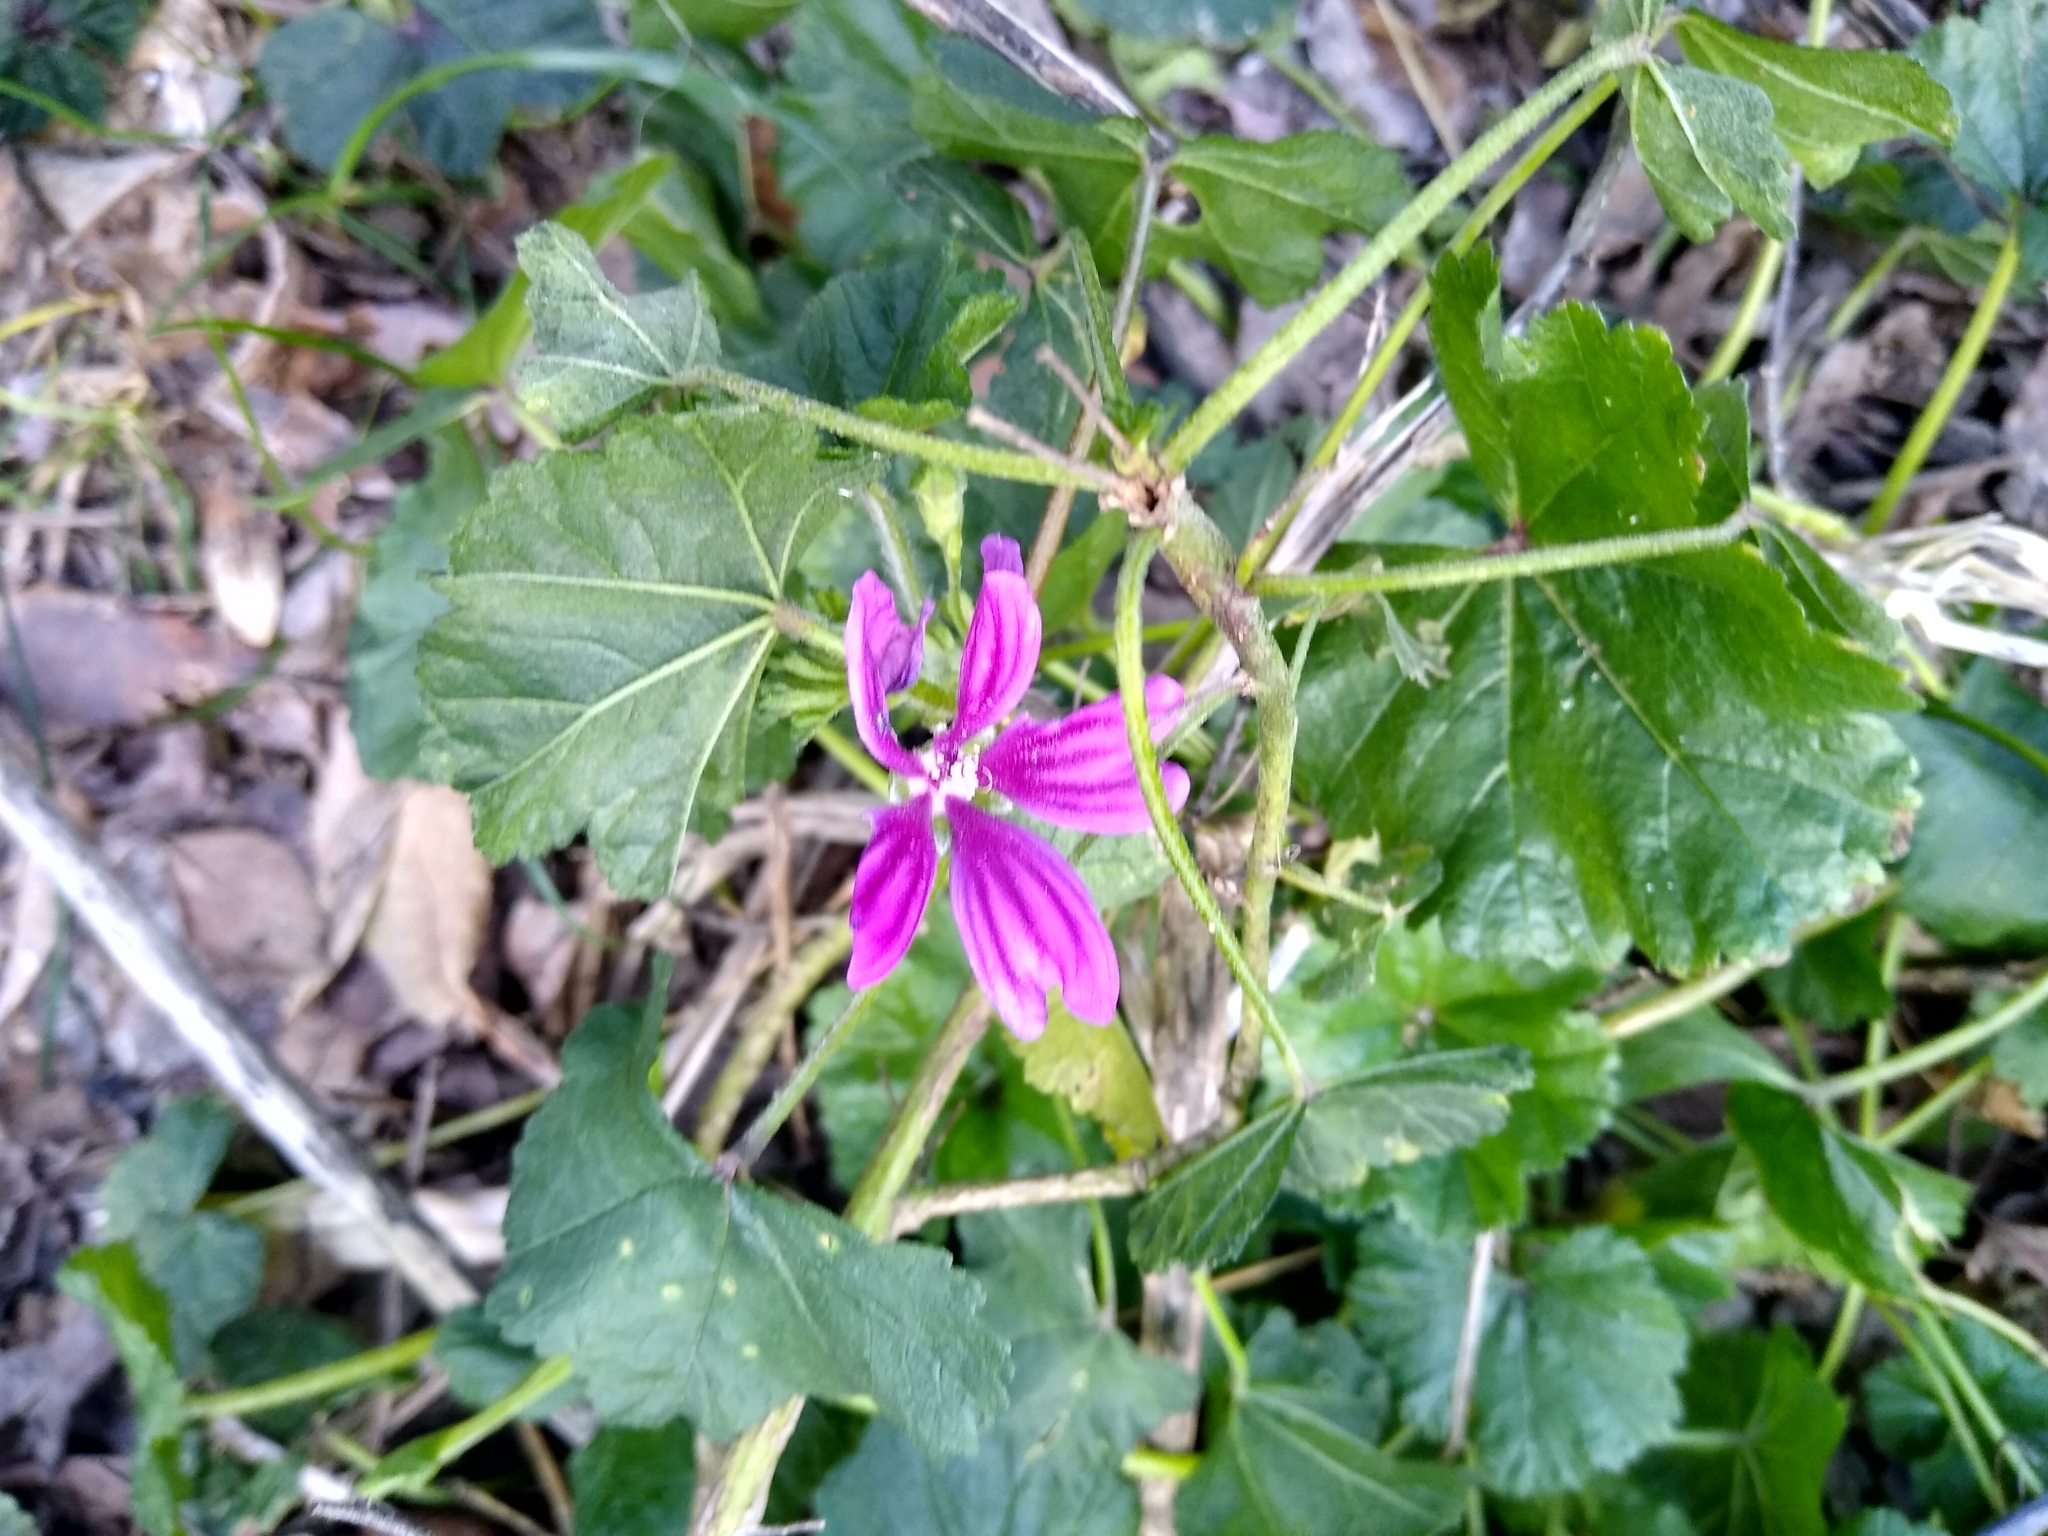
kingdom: Plantae
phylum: Tracheophyta
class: Magnoliopsida
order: Malvales
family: Malvaceae
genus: Malva
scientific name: Malva sylvestris
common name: Common mallow
